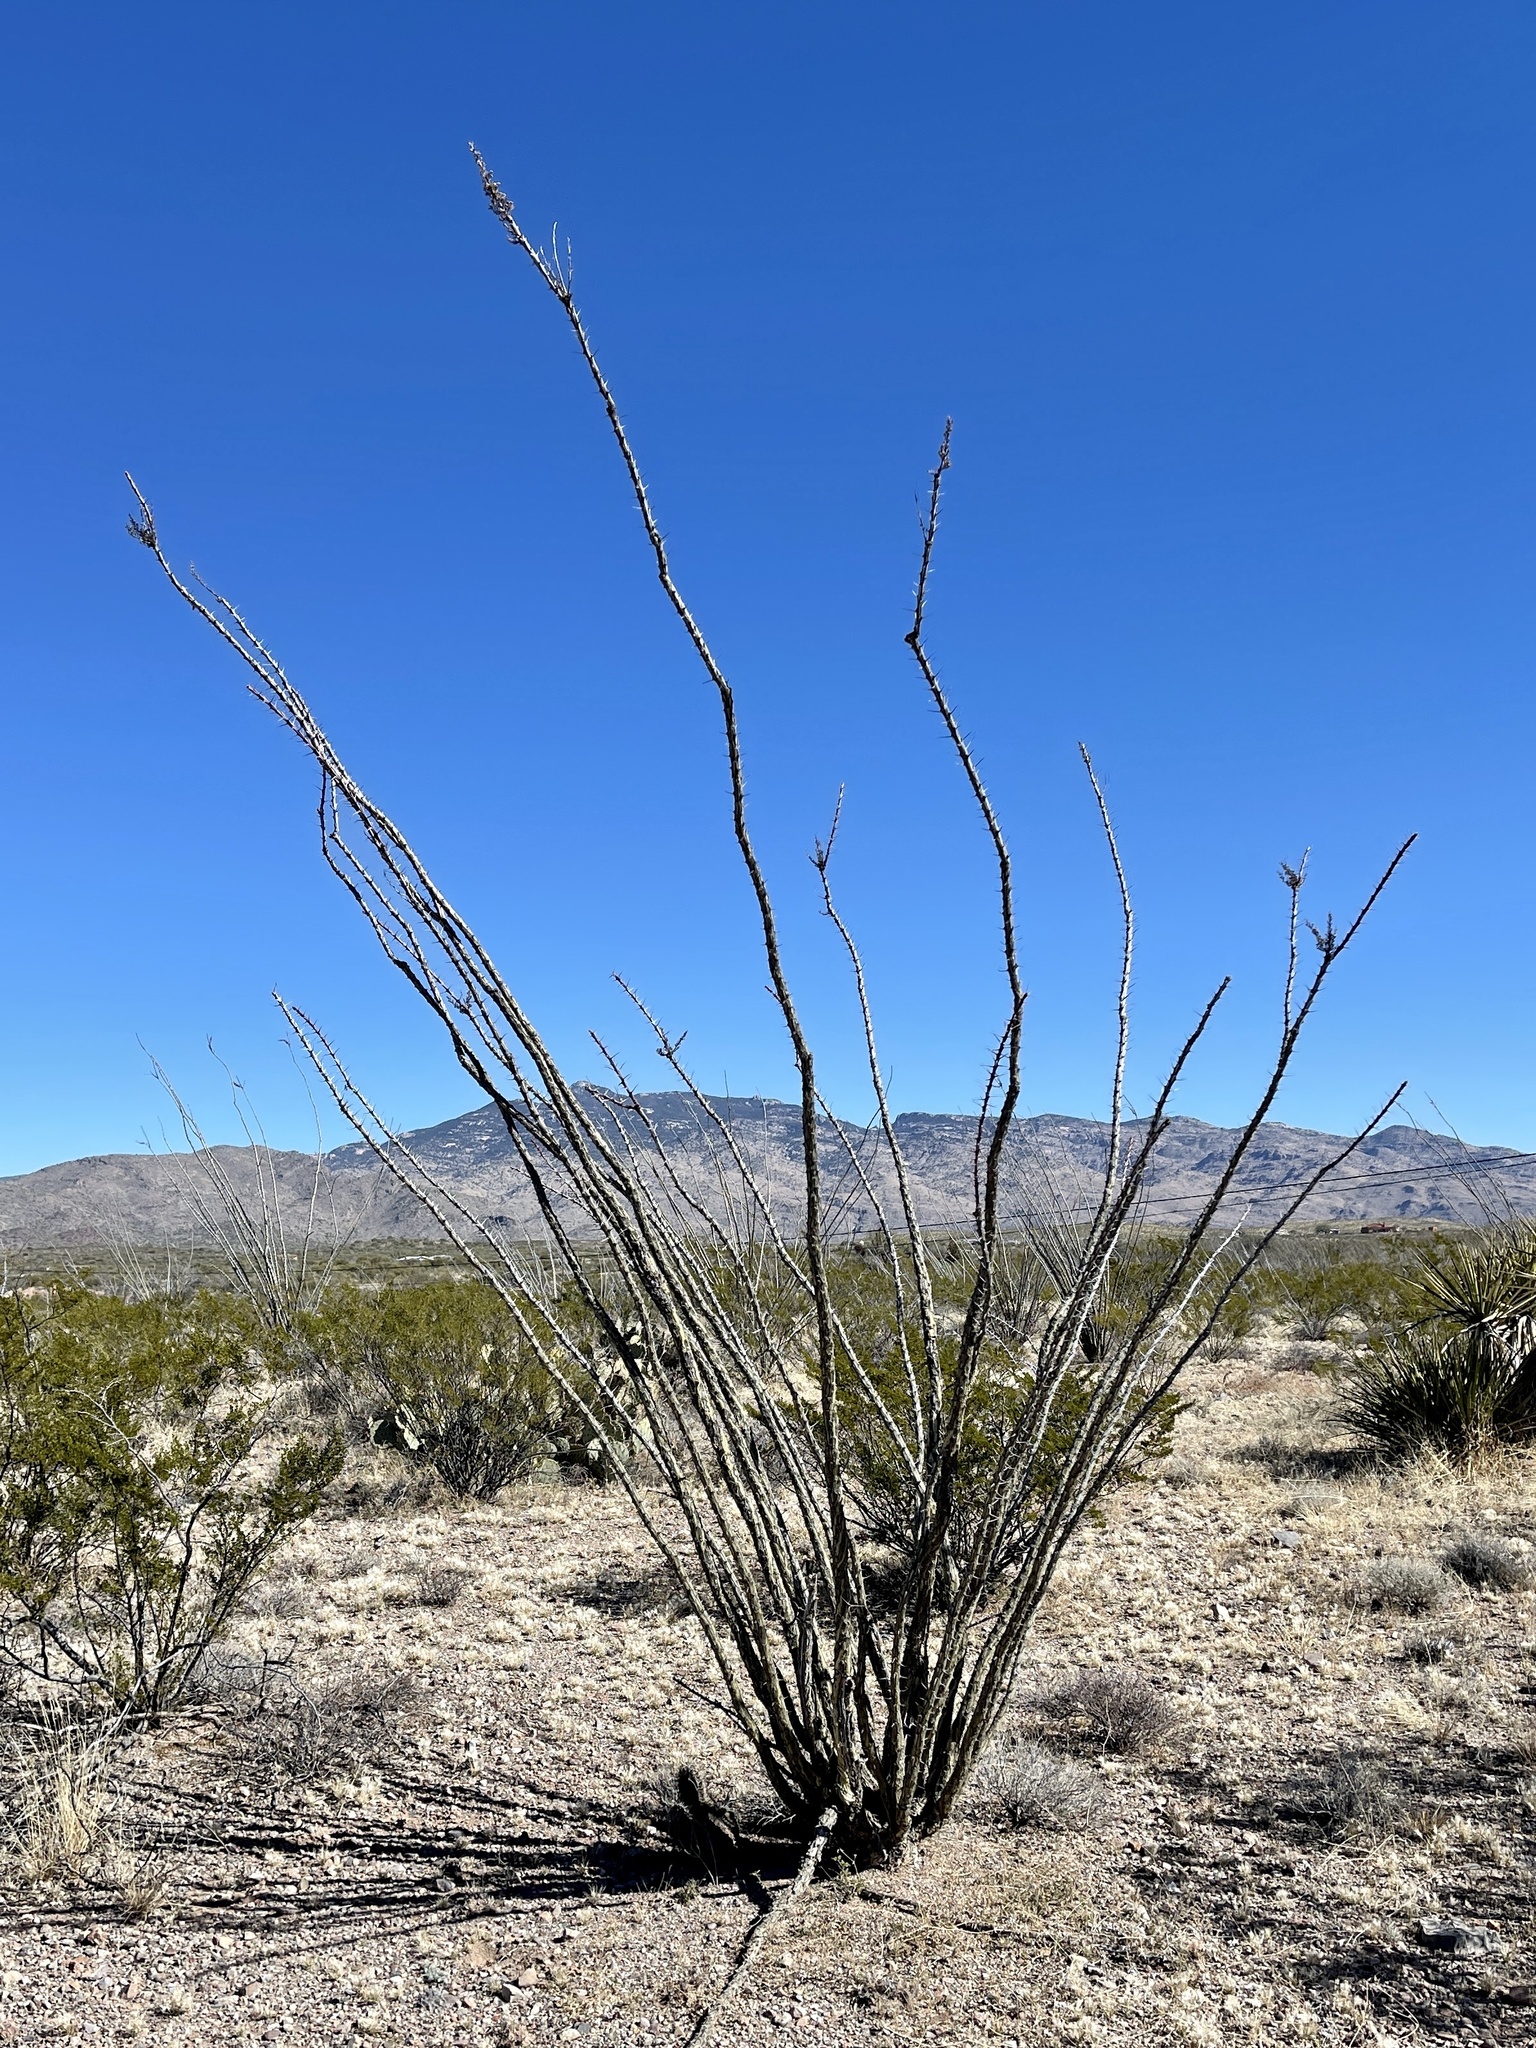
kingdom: Plantae
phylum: Tracheophyta
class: Magnoliopsida
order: Ericales
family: Fouquieriaceae
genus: Fouquieria
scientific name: Fouquieria splendens
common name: Vine-cactus
